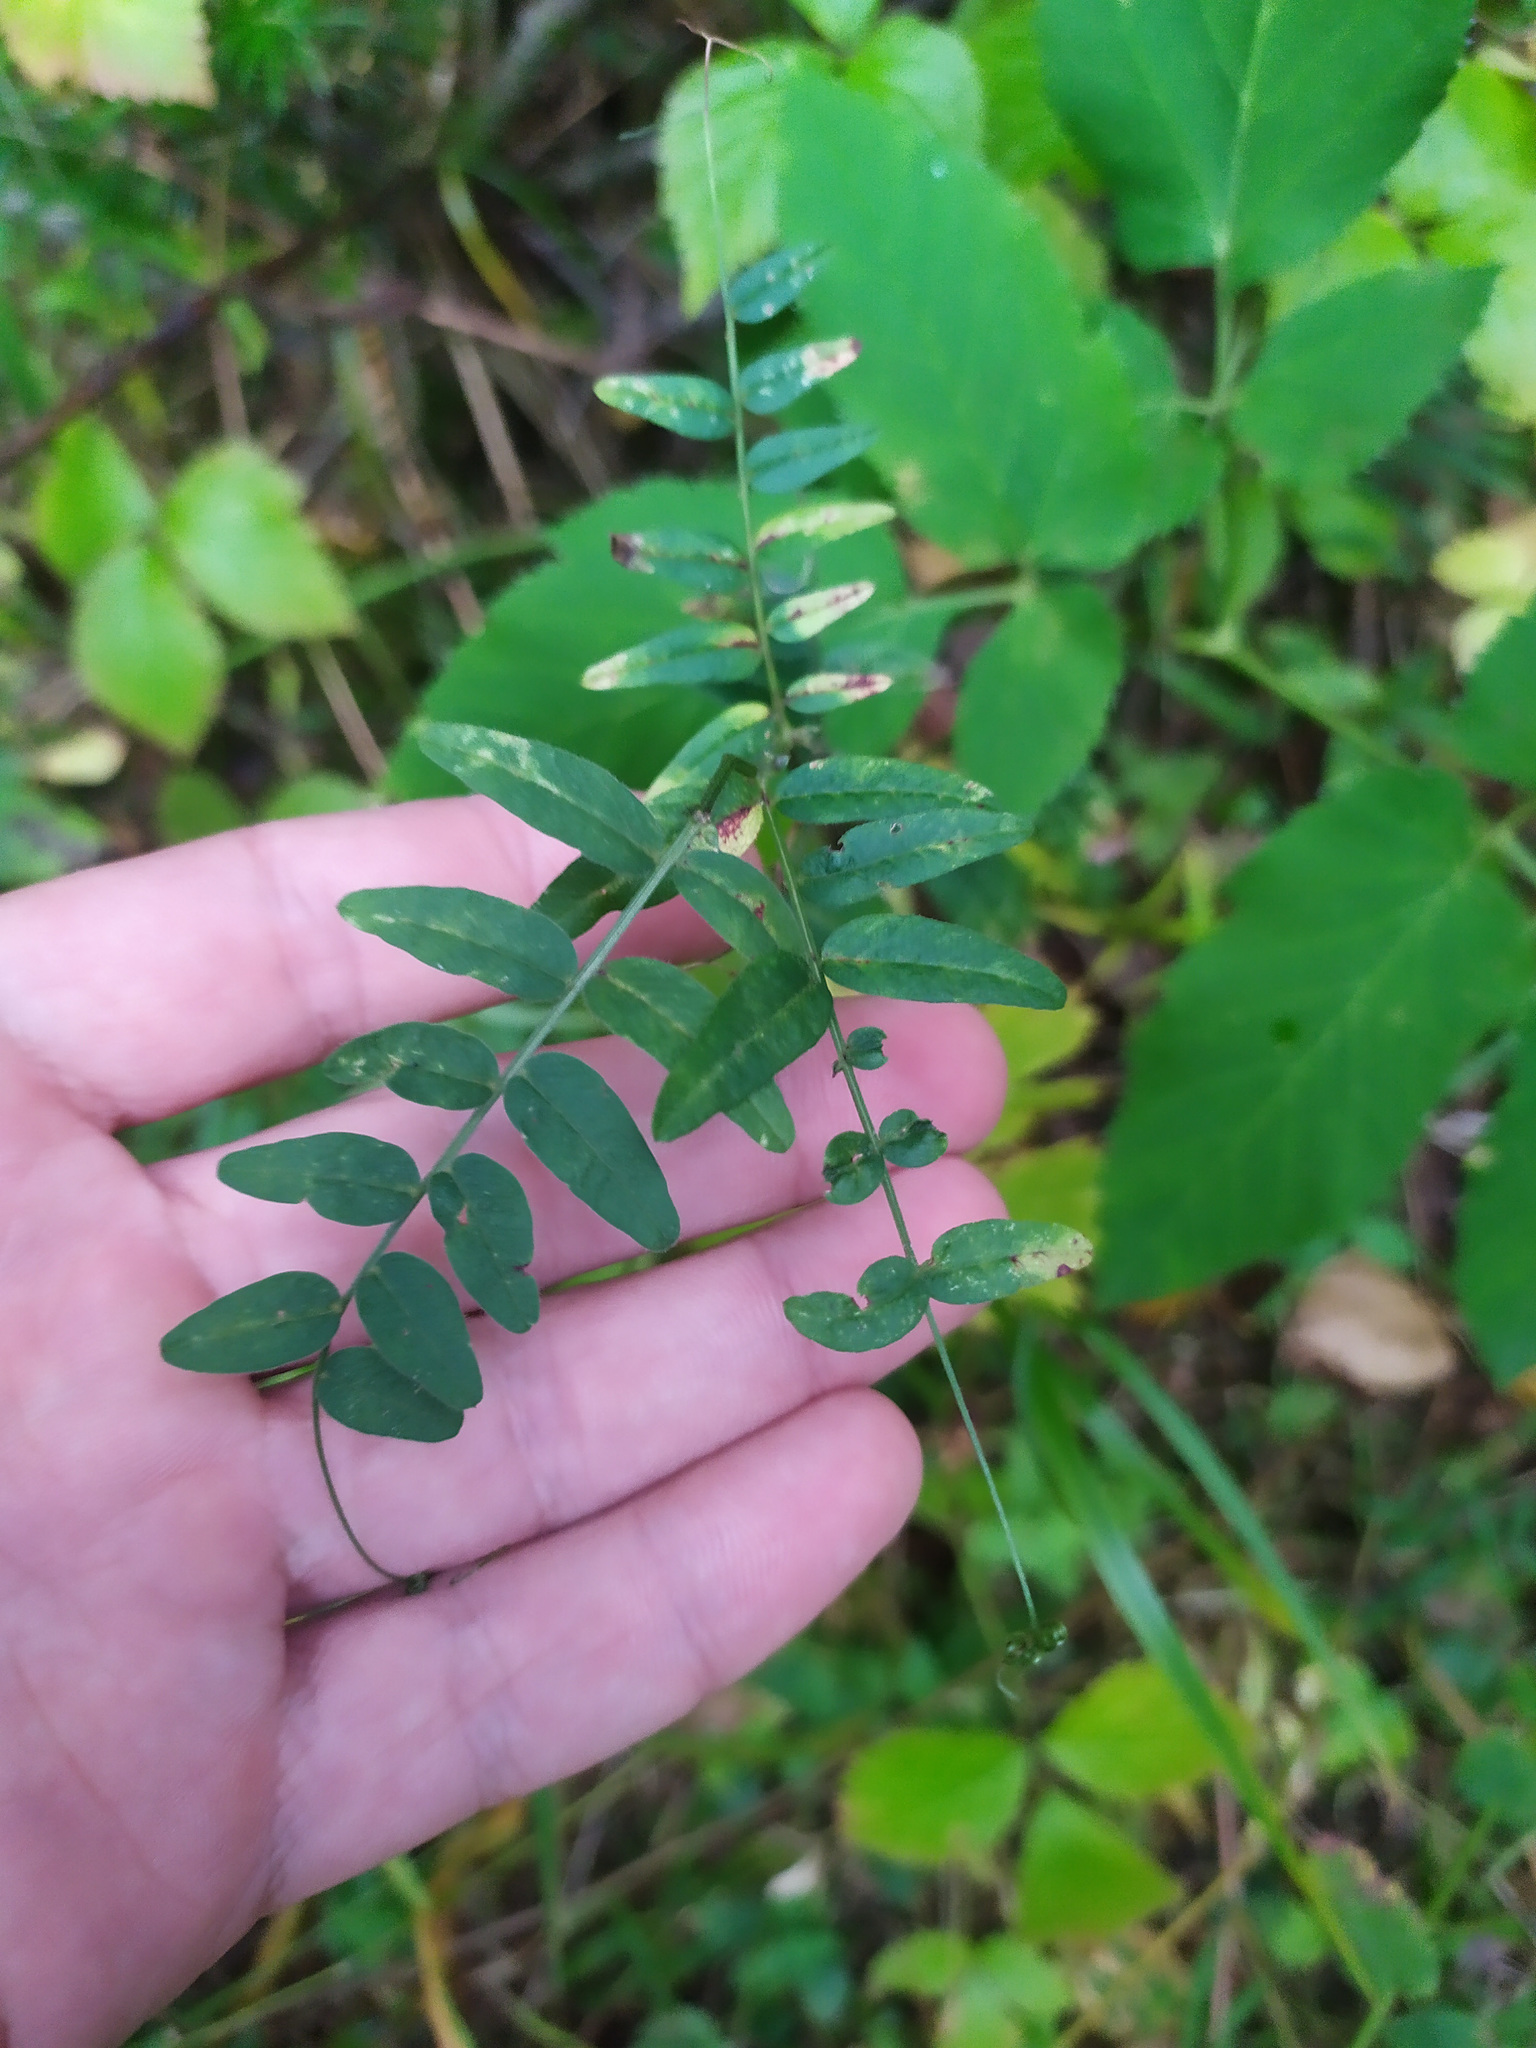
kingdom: Plantae
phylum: Tracheophyta
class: Magnoliopsida
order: Fabales
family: Fabaceae
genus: Vicia
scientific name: Vicia sepium
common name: Bush vetch
